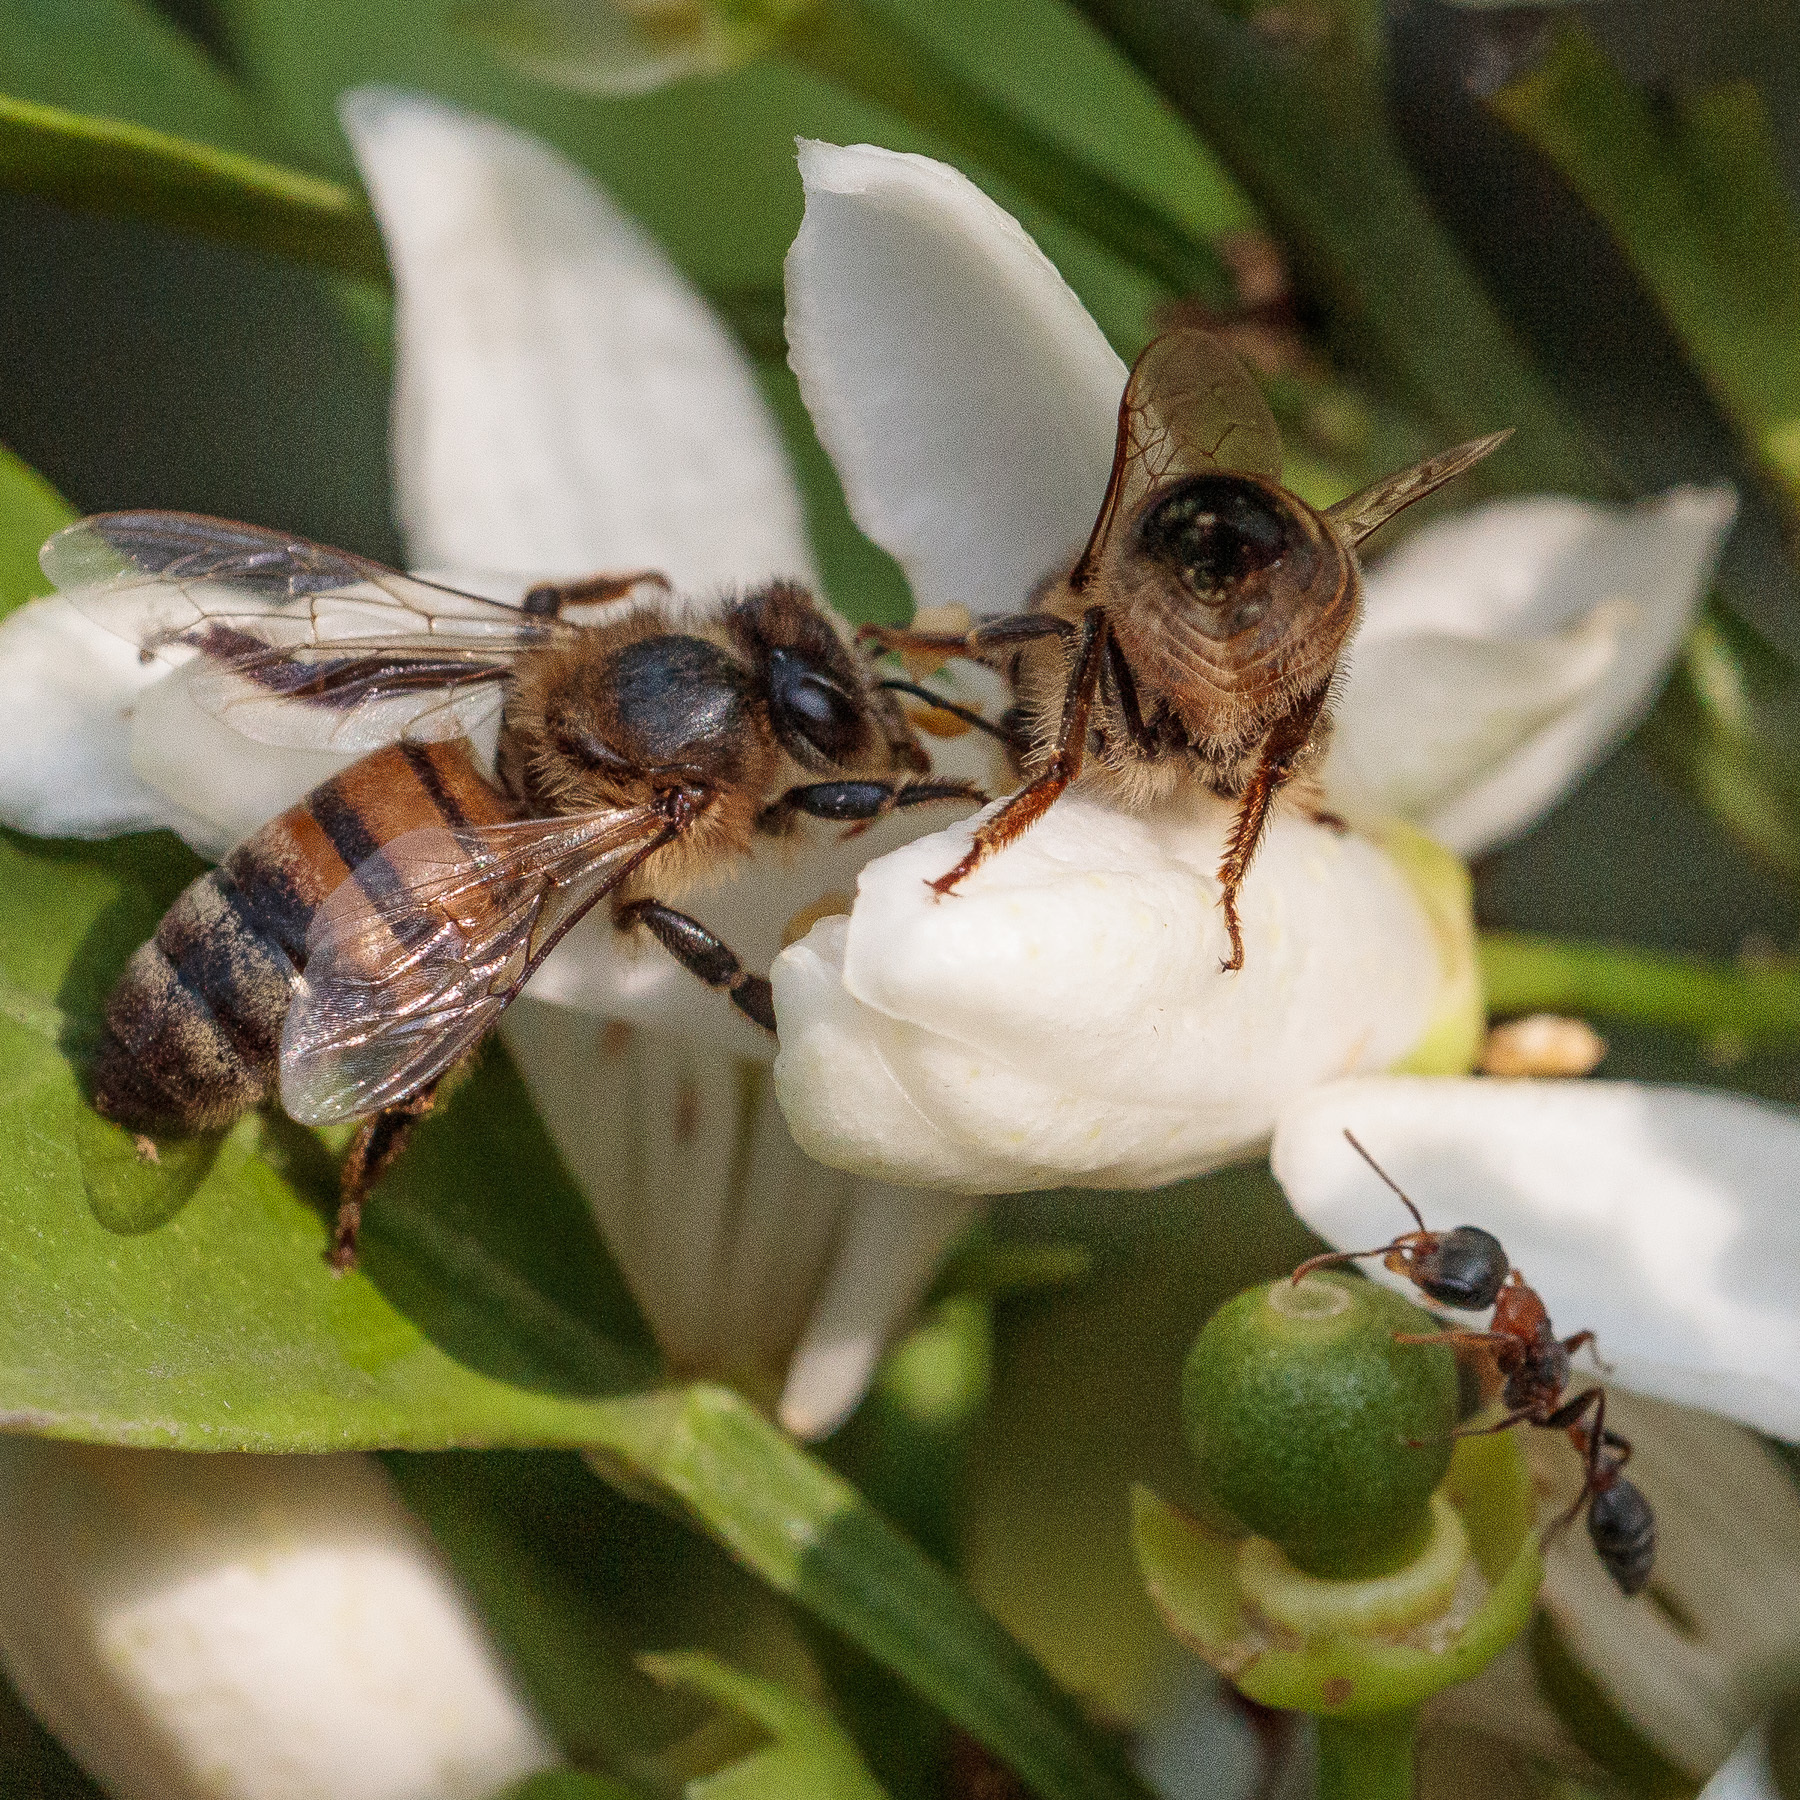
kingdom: Animalia
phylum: Arthropoda
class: Insecta
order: Hymenoptera
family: Formicidae
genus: Pseudomyrmex
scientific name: Pseudomyrmex gracilis
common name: Graceful twig ant
